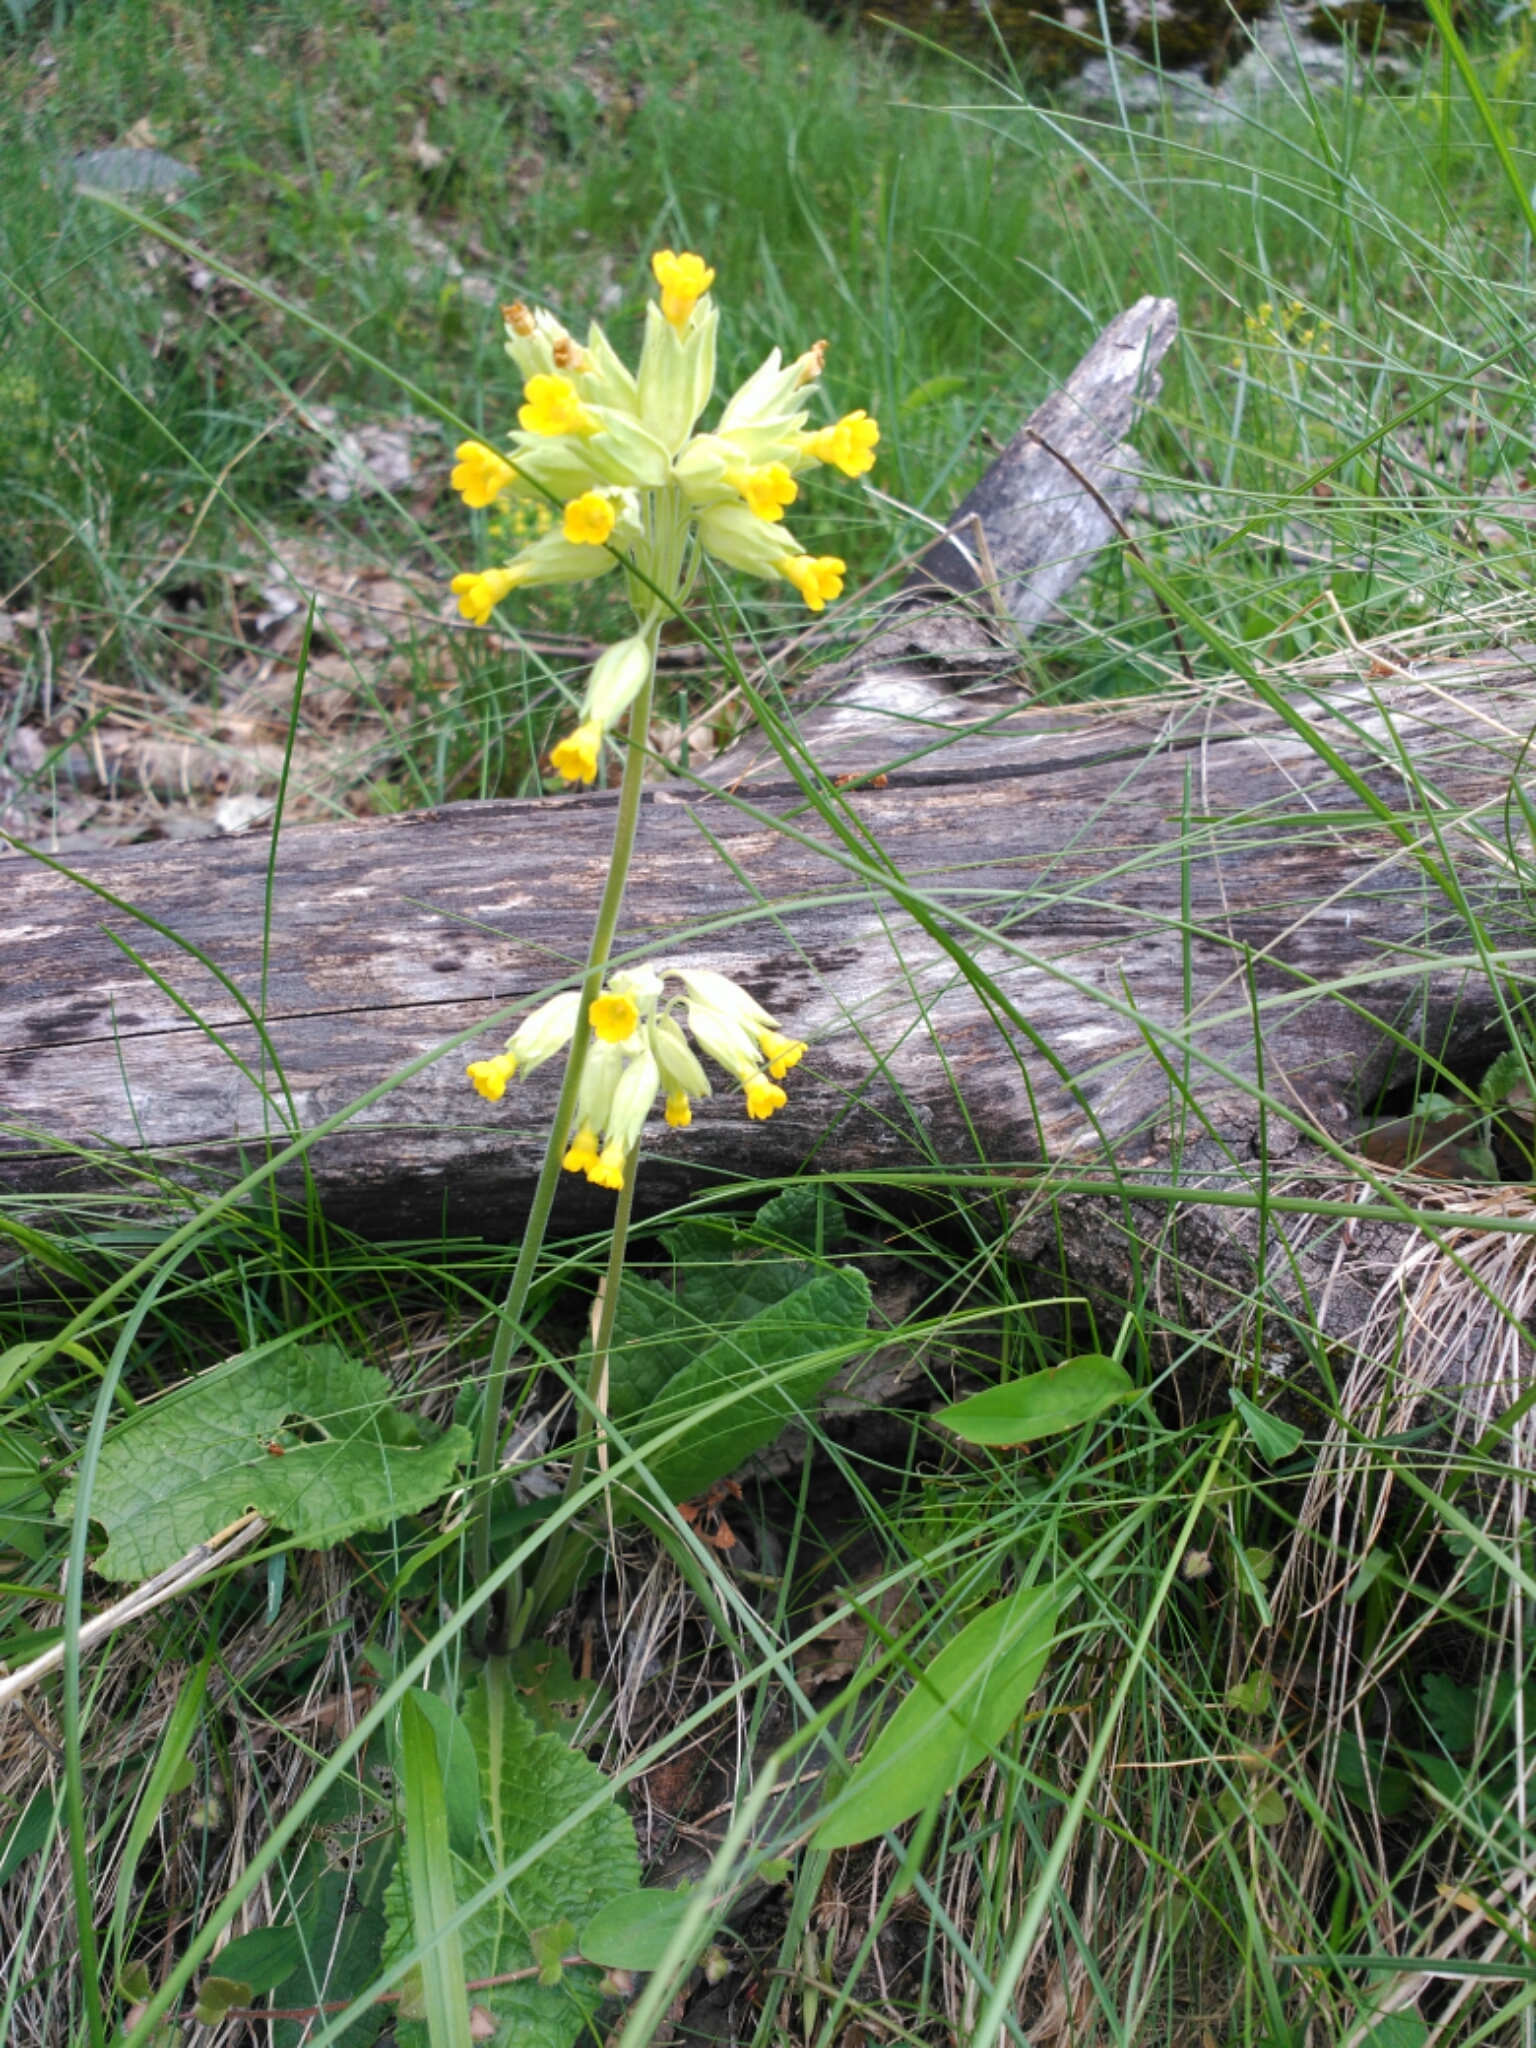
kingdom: Plantae
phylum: Tracheophyta
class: Magnoliopsida
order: Ericales
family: Primulaceae
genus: Primula
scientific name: Primula veris
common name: Cowslip
